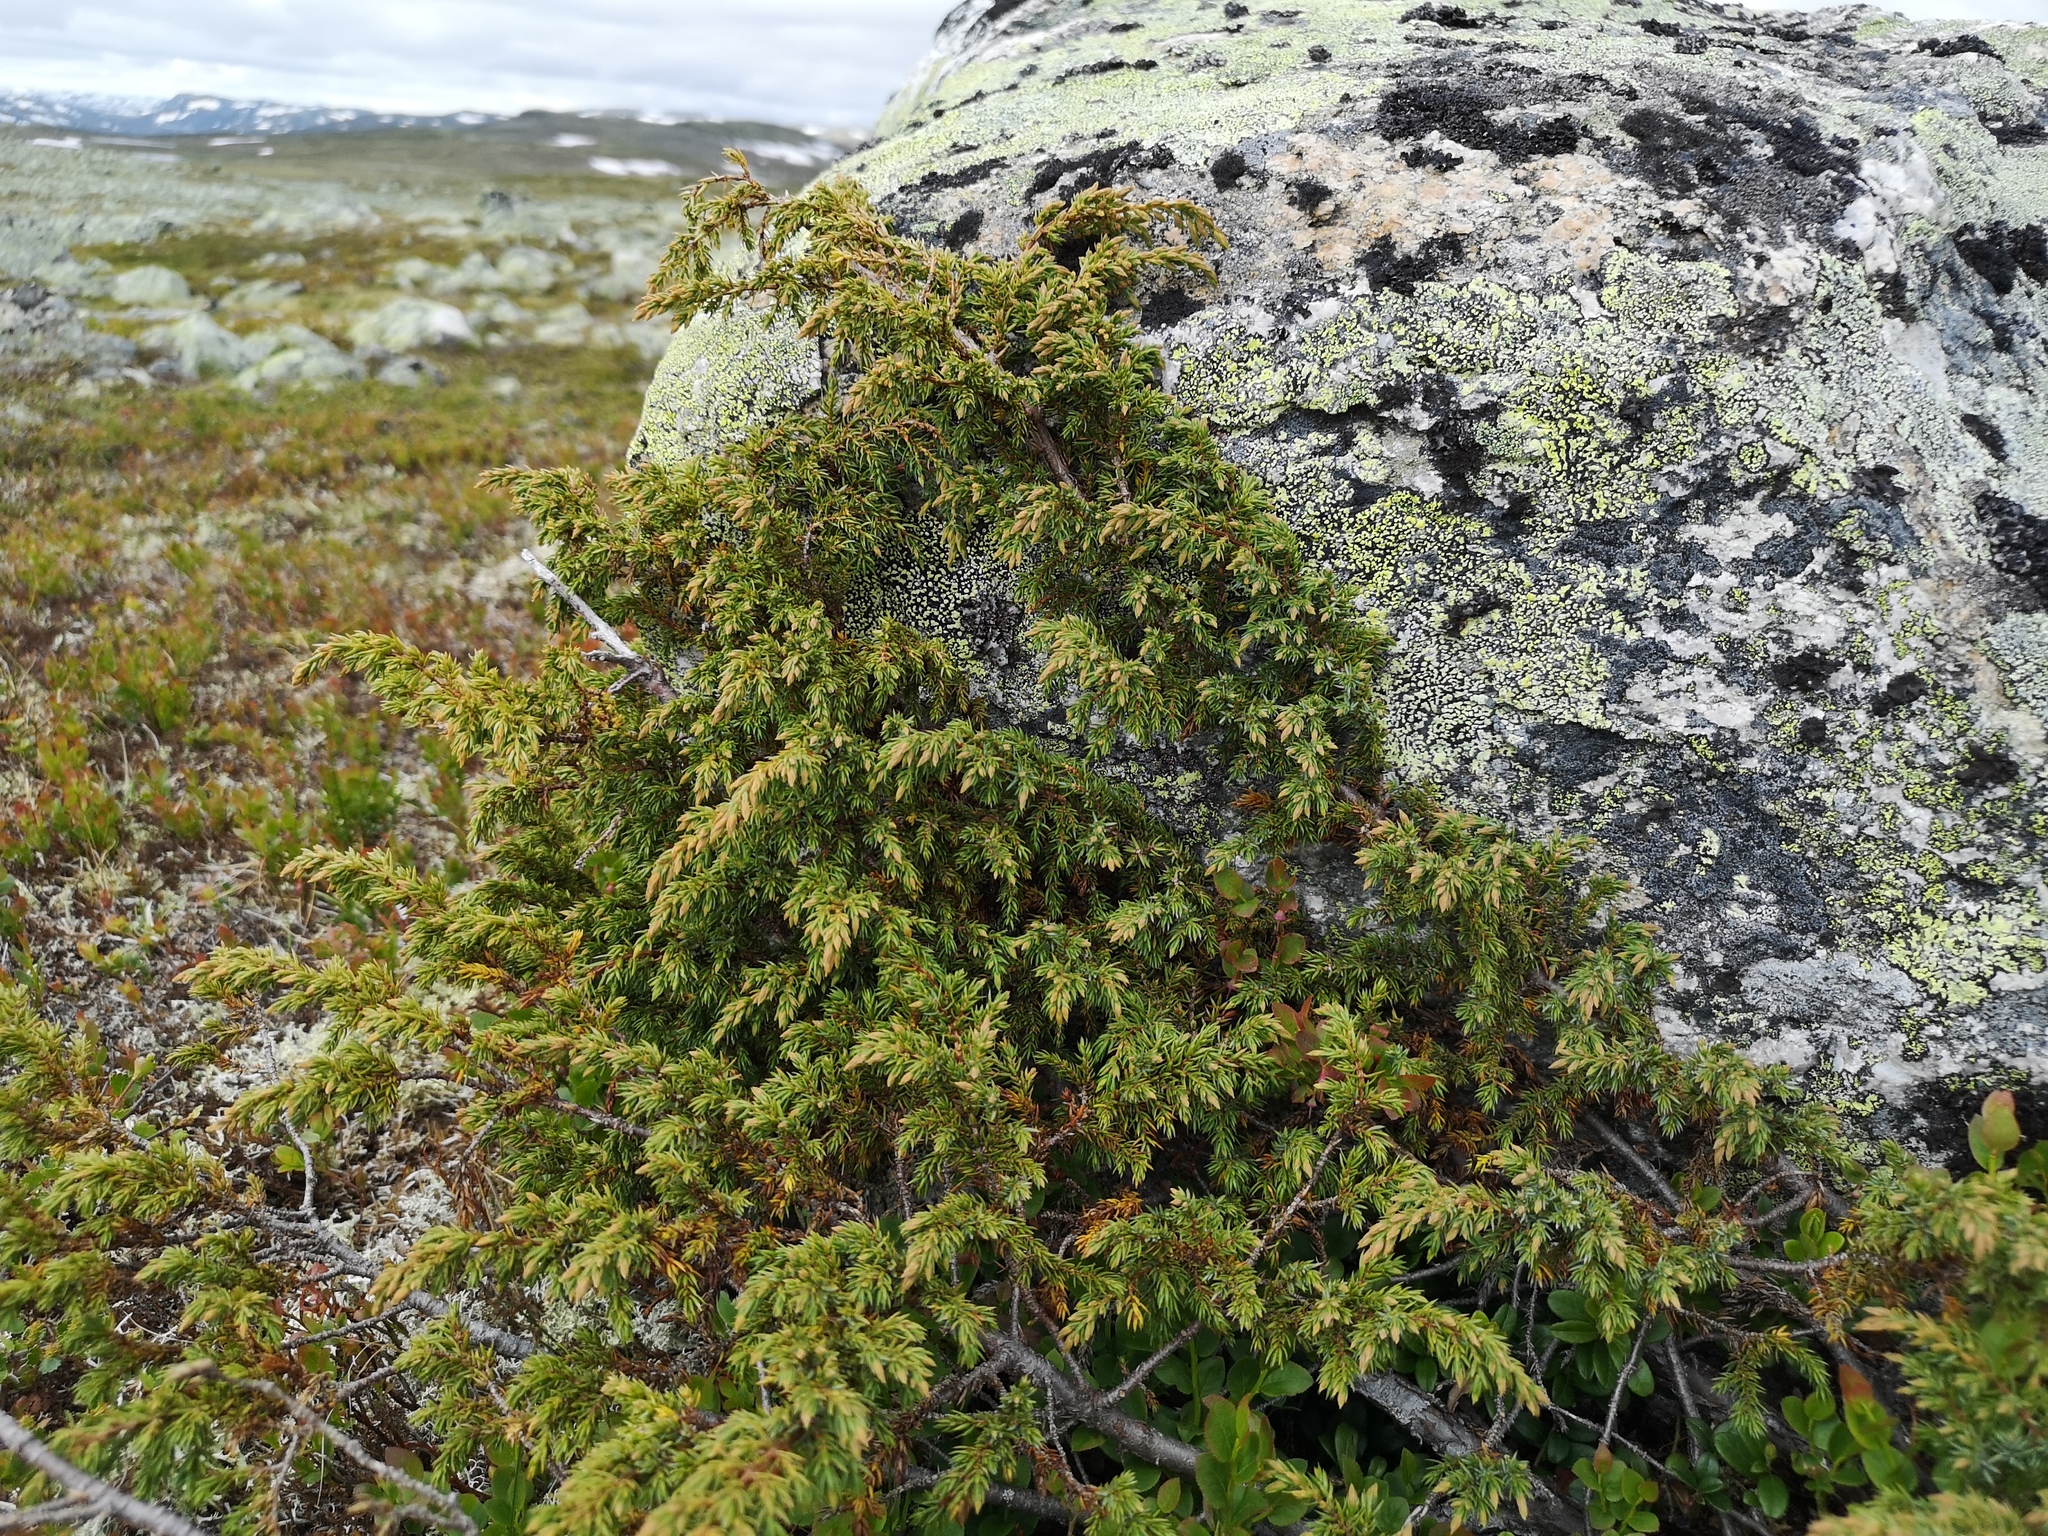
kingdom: Plantae
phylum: Tracheophyta
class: Pinopsida
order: Pinales
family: Cupressaceae
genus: Juniperus
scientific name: Juniperus communis
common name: Common juniper
